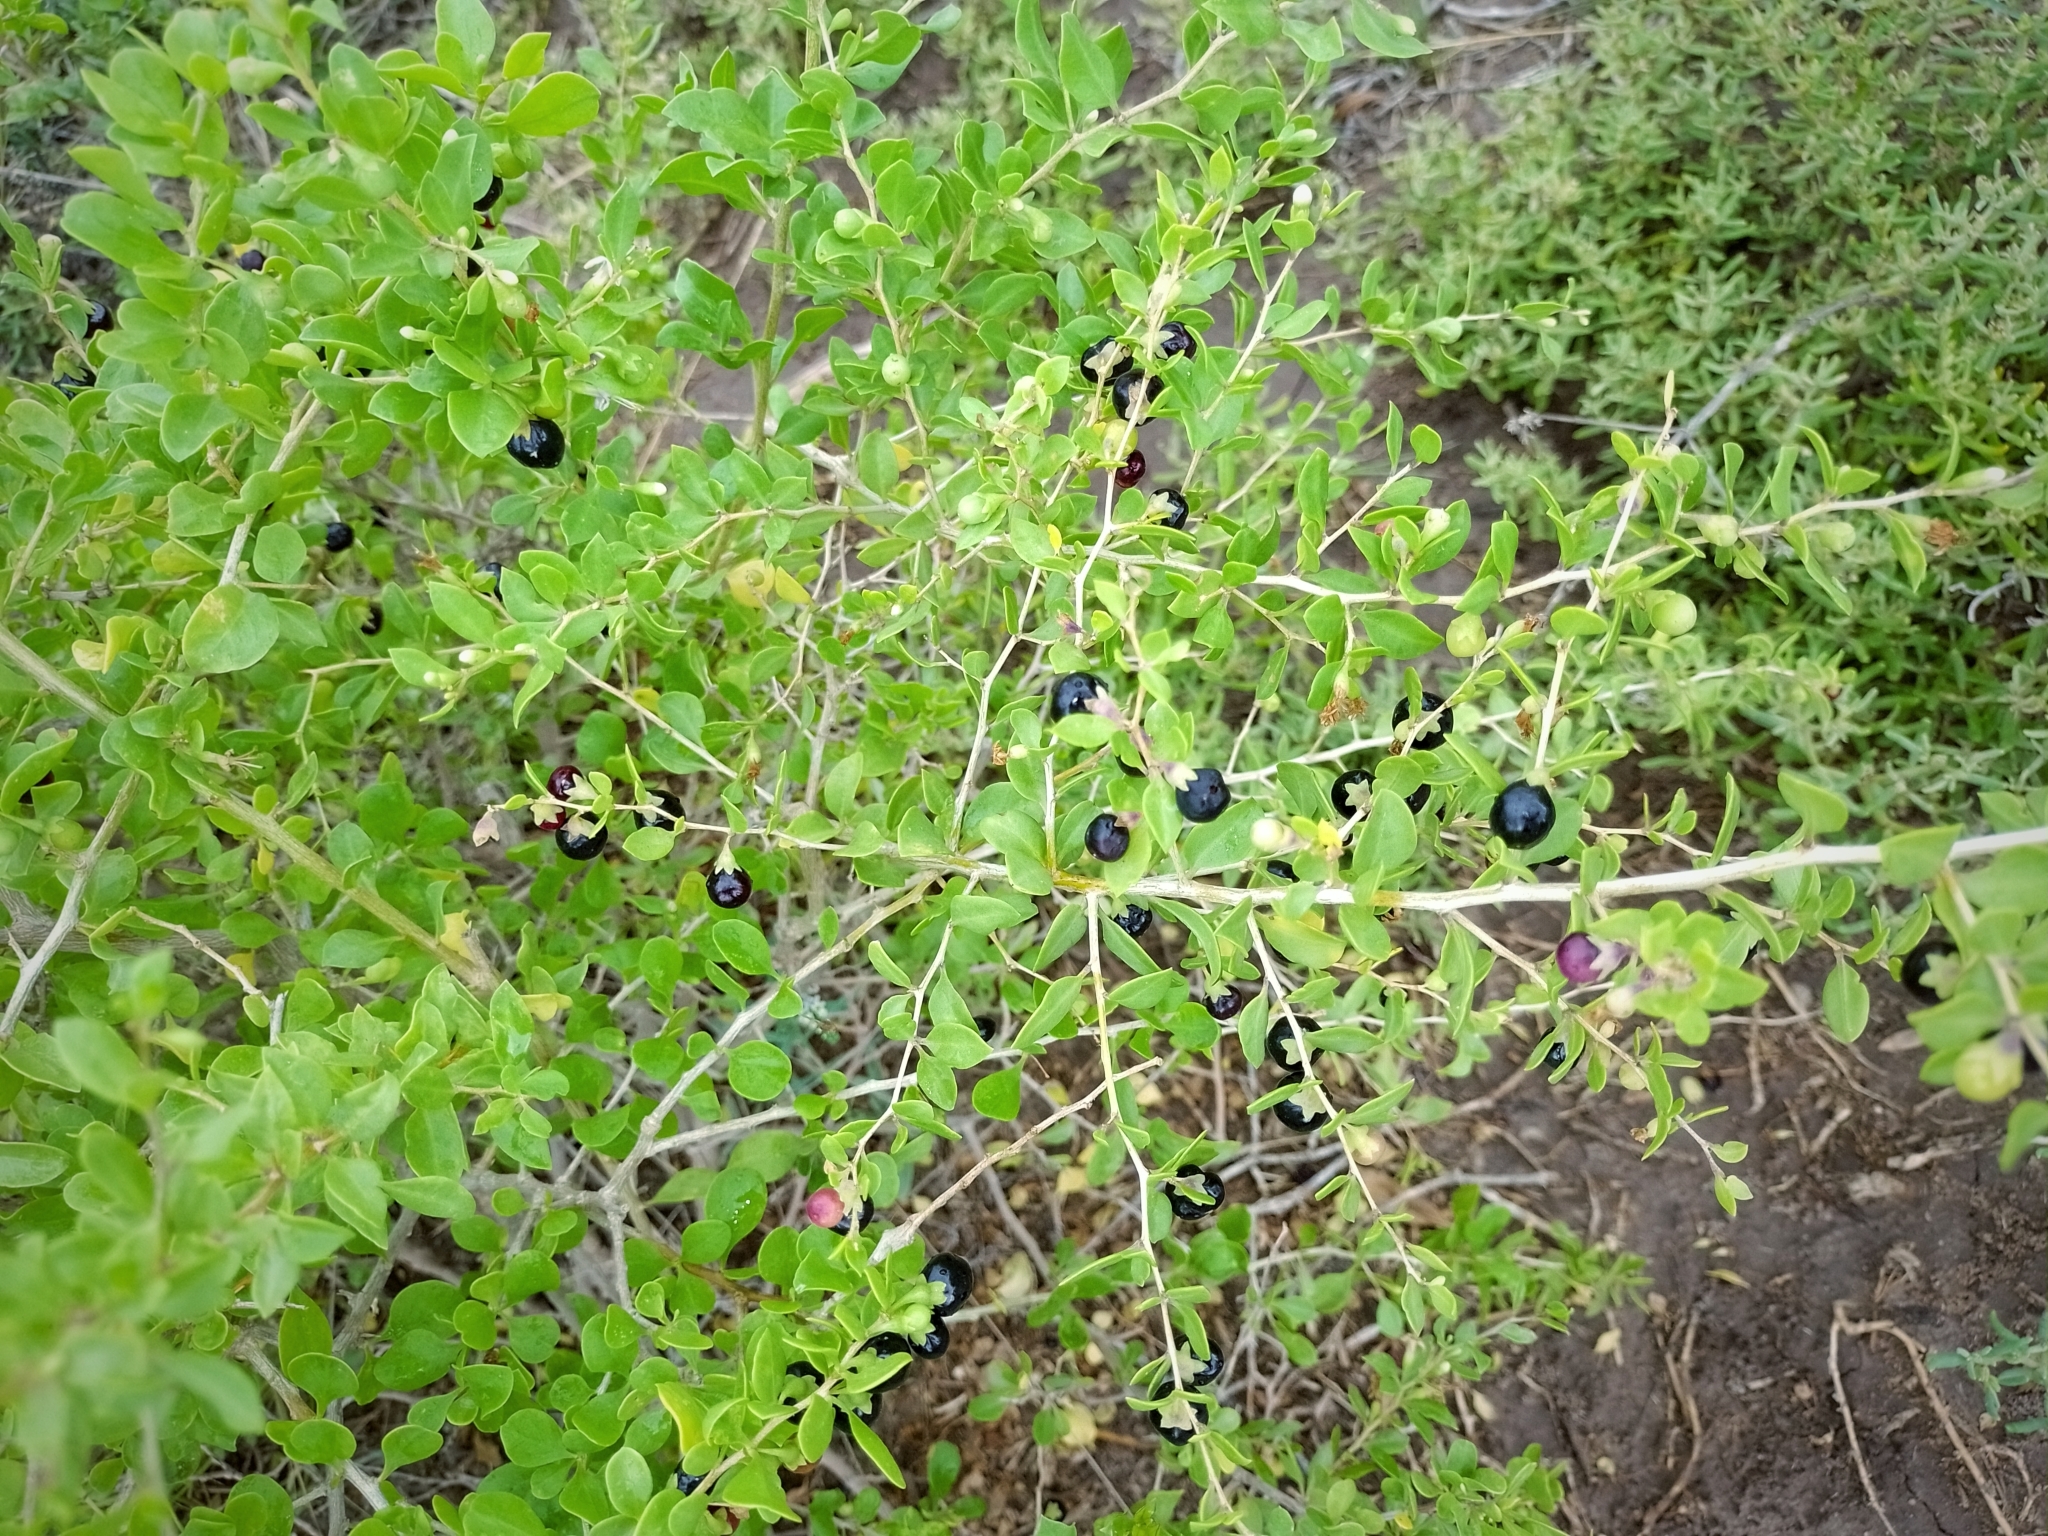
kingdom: Plantae
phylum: Tracheophyta
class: Magnoliopsida
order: Solanales
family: Solanaceae
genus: Lycium
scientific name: Lycium tenuispinosum
